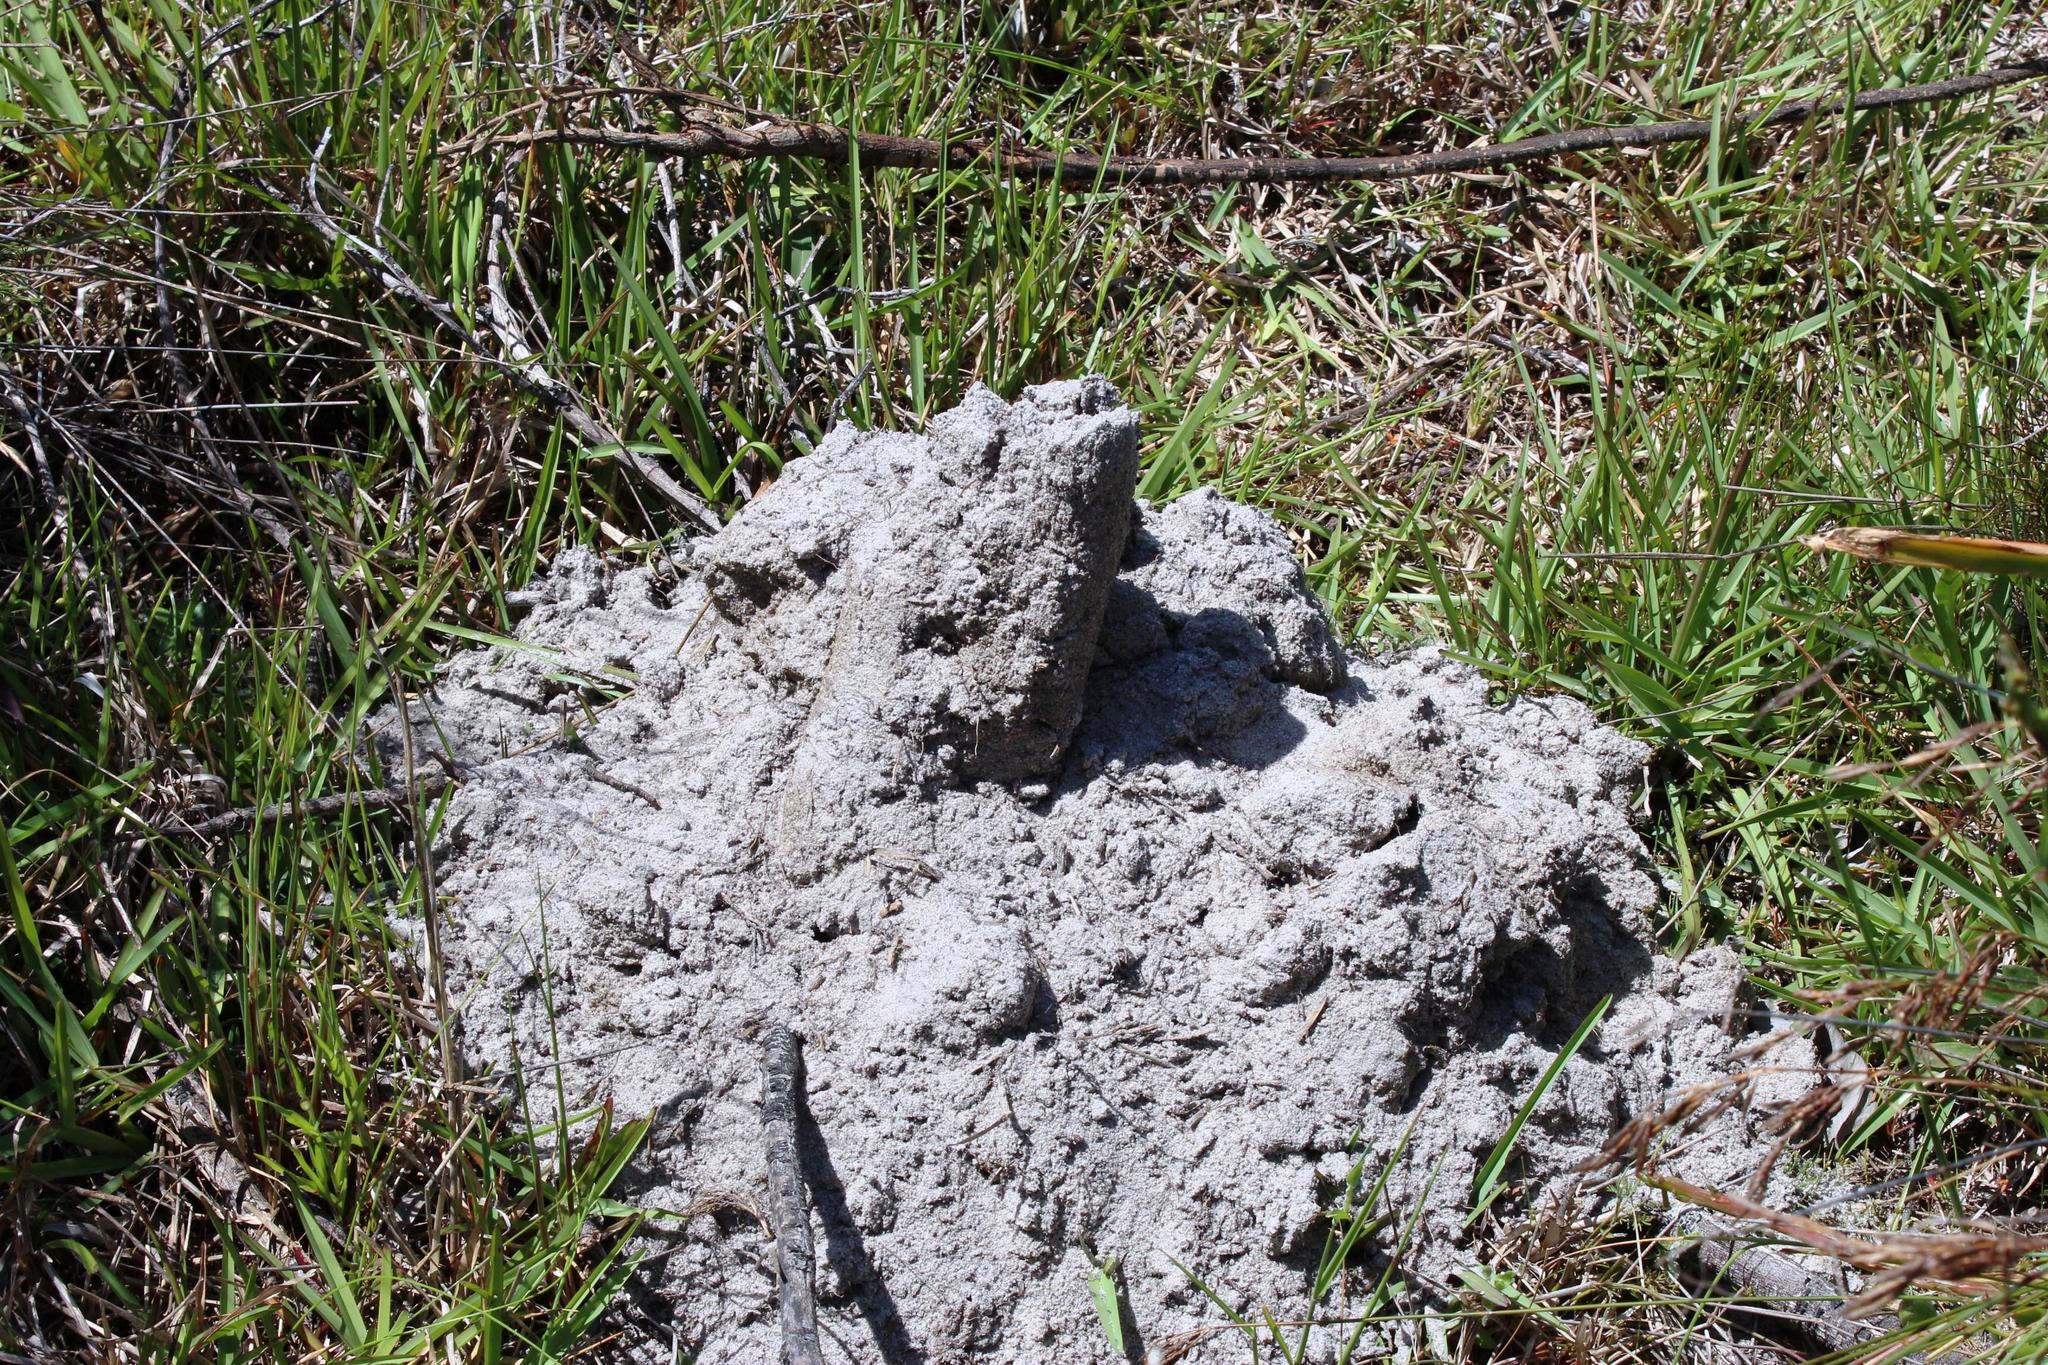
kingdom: Animalia
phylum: Chordata
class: Mammalia
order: Rodentia
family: Bathyergidae
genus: Bathyergus
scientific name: Bathyergus suillus
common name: Cape dune mole rat
